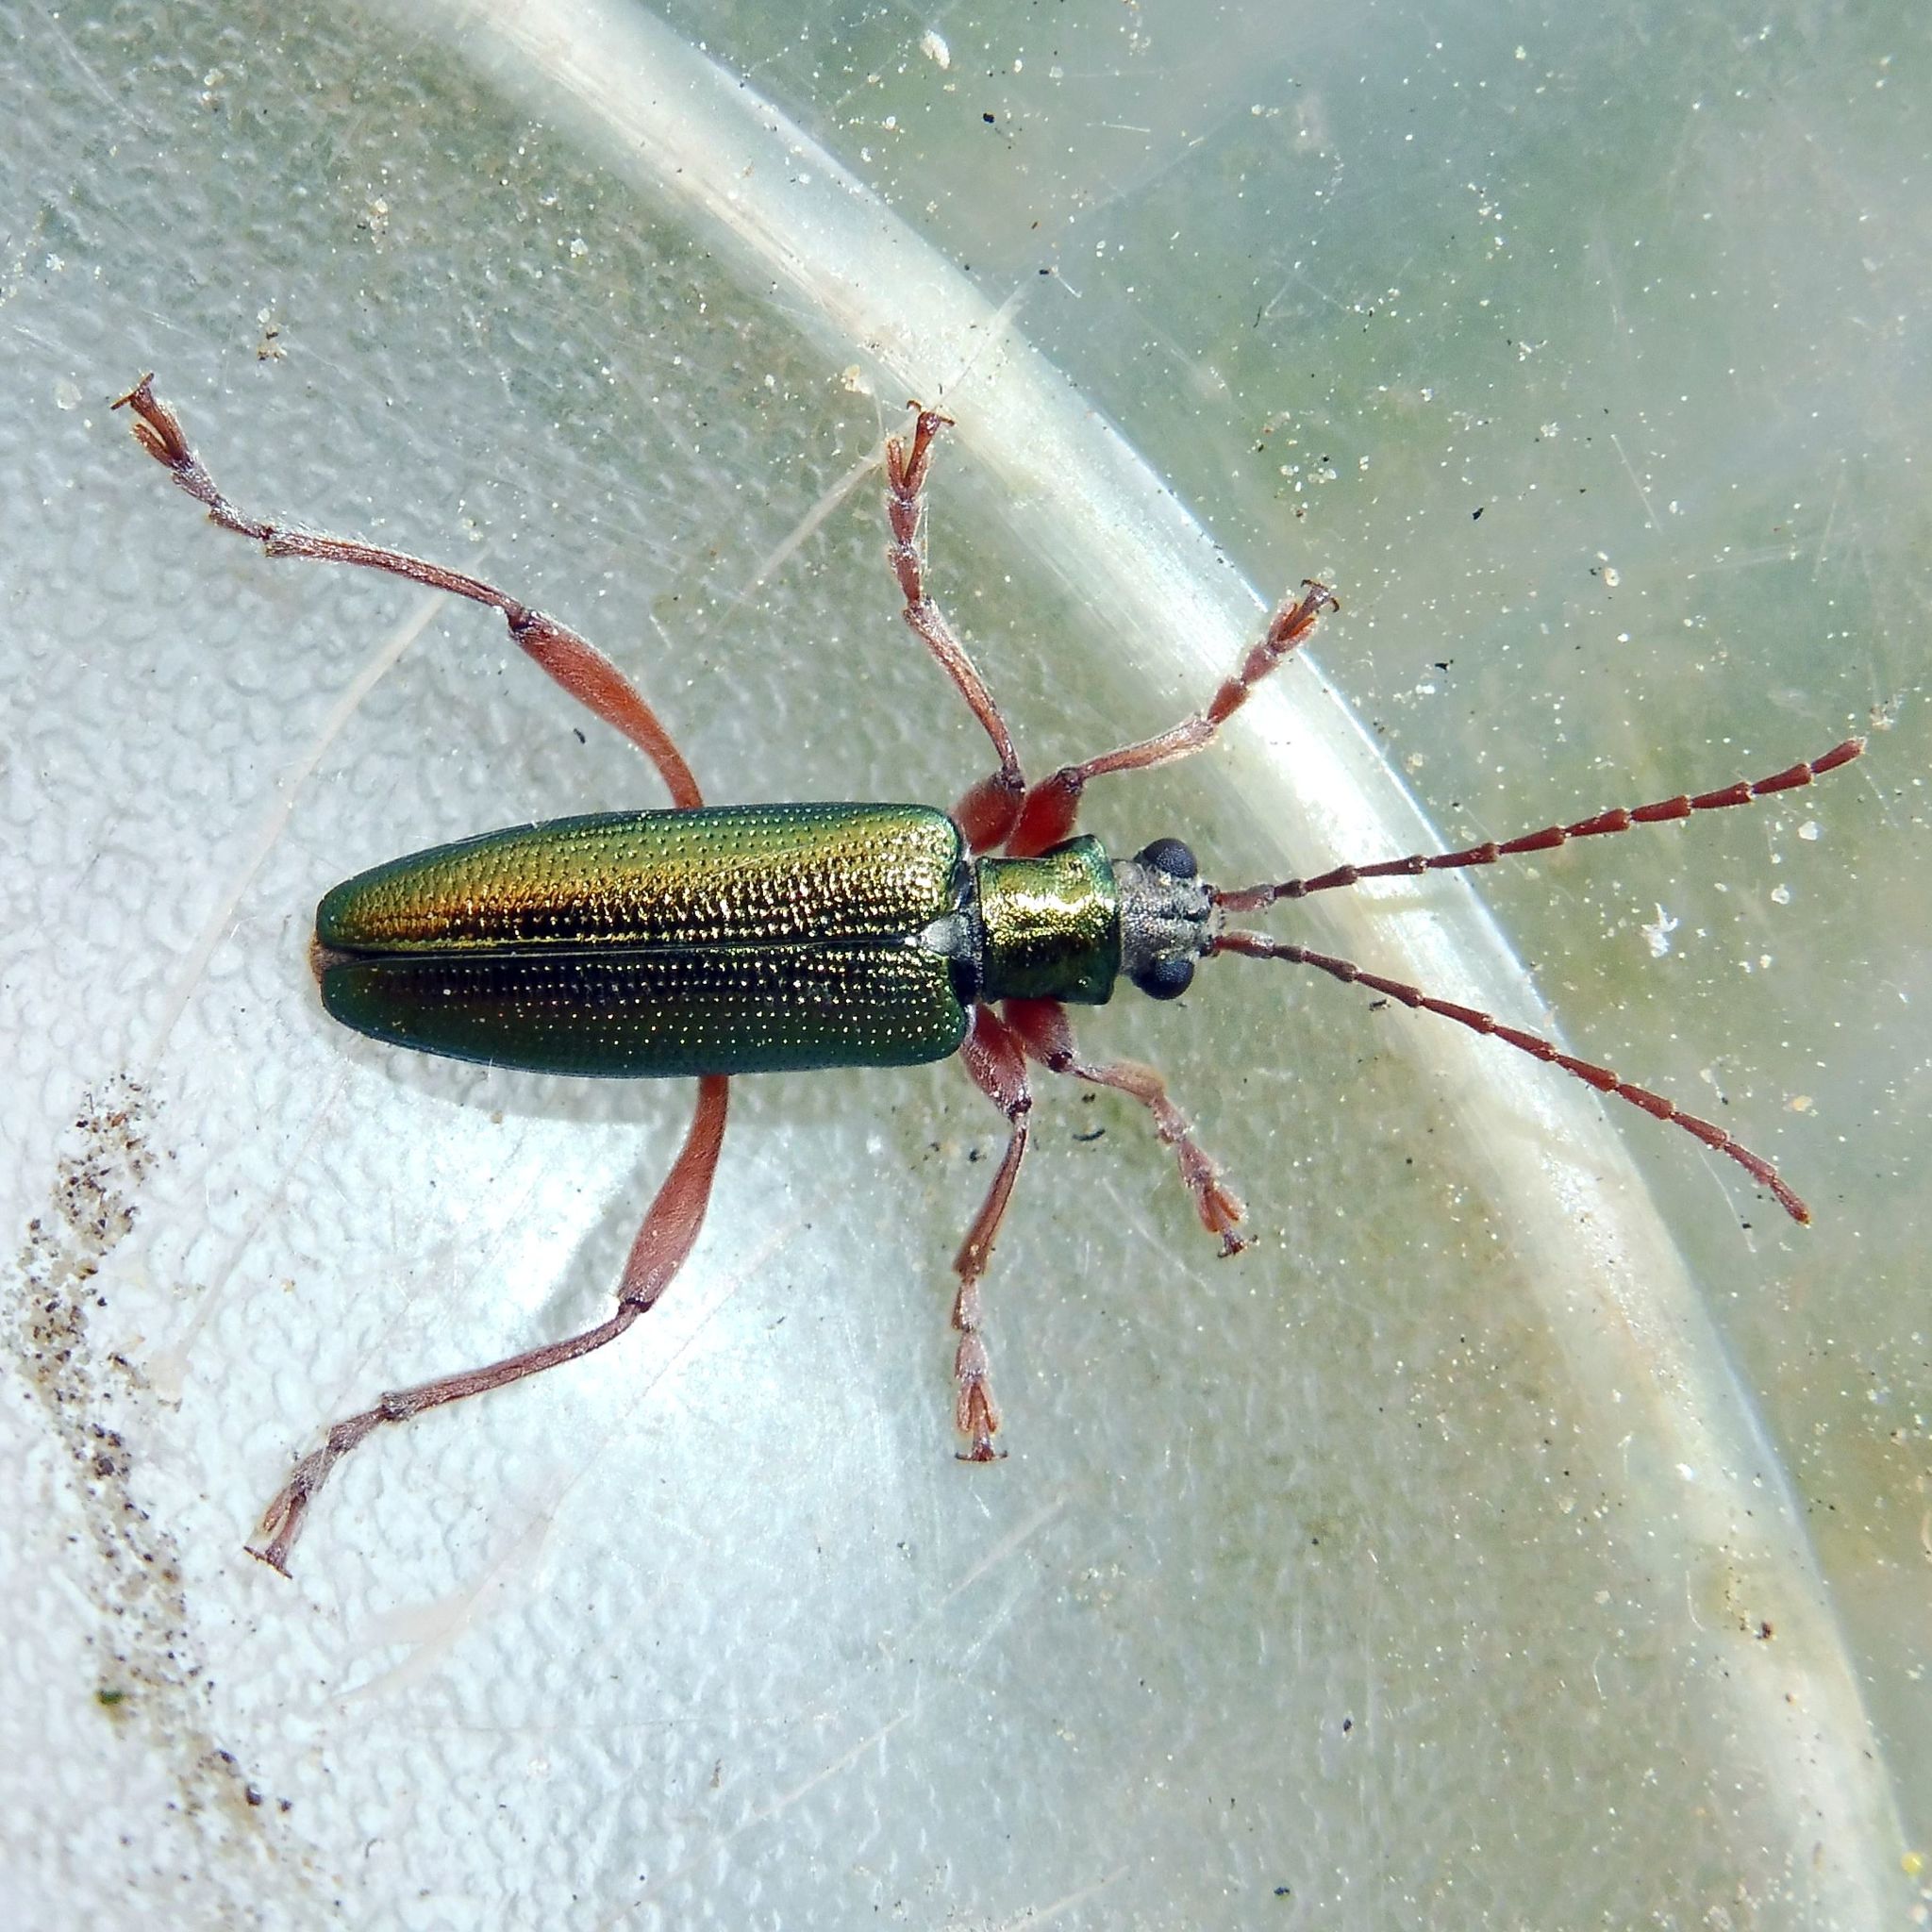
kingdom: Animalia
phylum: Arthropoda
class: Insecta
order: Coleoptera
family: Chrysomelidae
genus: Donacia
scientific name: Donacia clavipes
